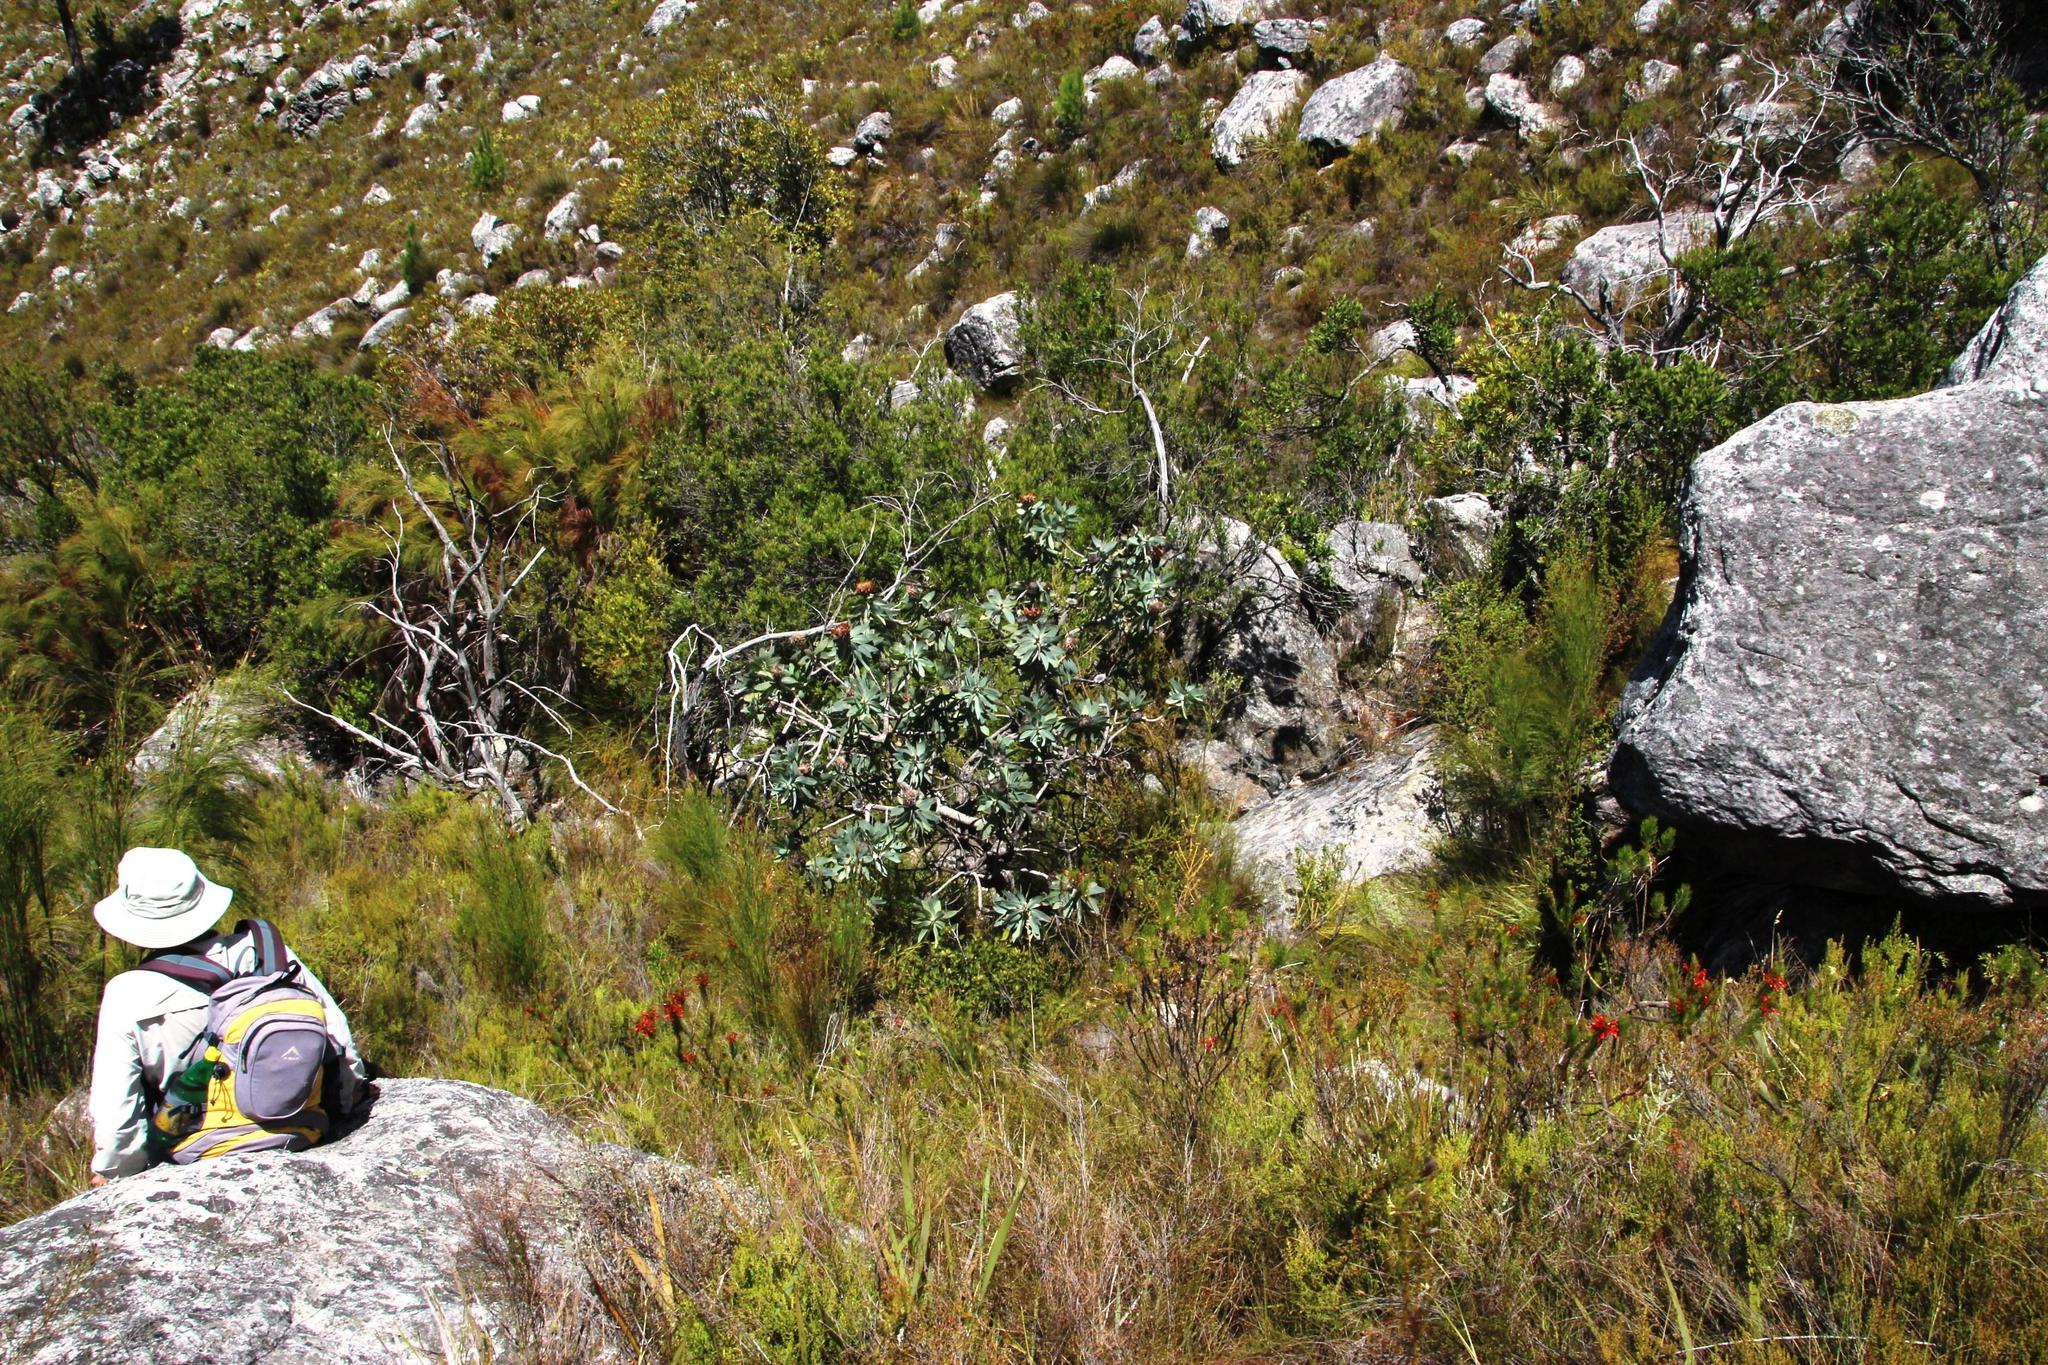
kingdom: Plantae
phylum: Tracheophyta
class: Magnoliopsida
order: Proteales
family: Proteaceae
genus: Protea
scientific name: Protea nitida
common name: Tree protea
